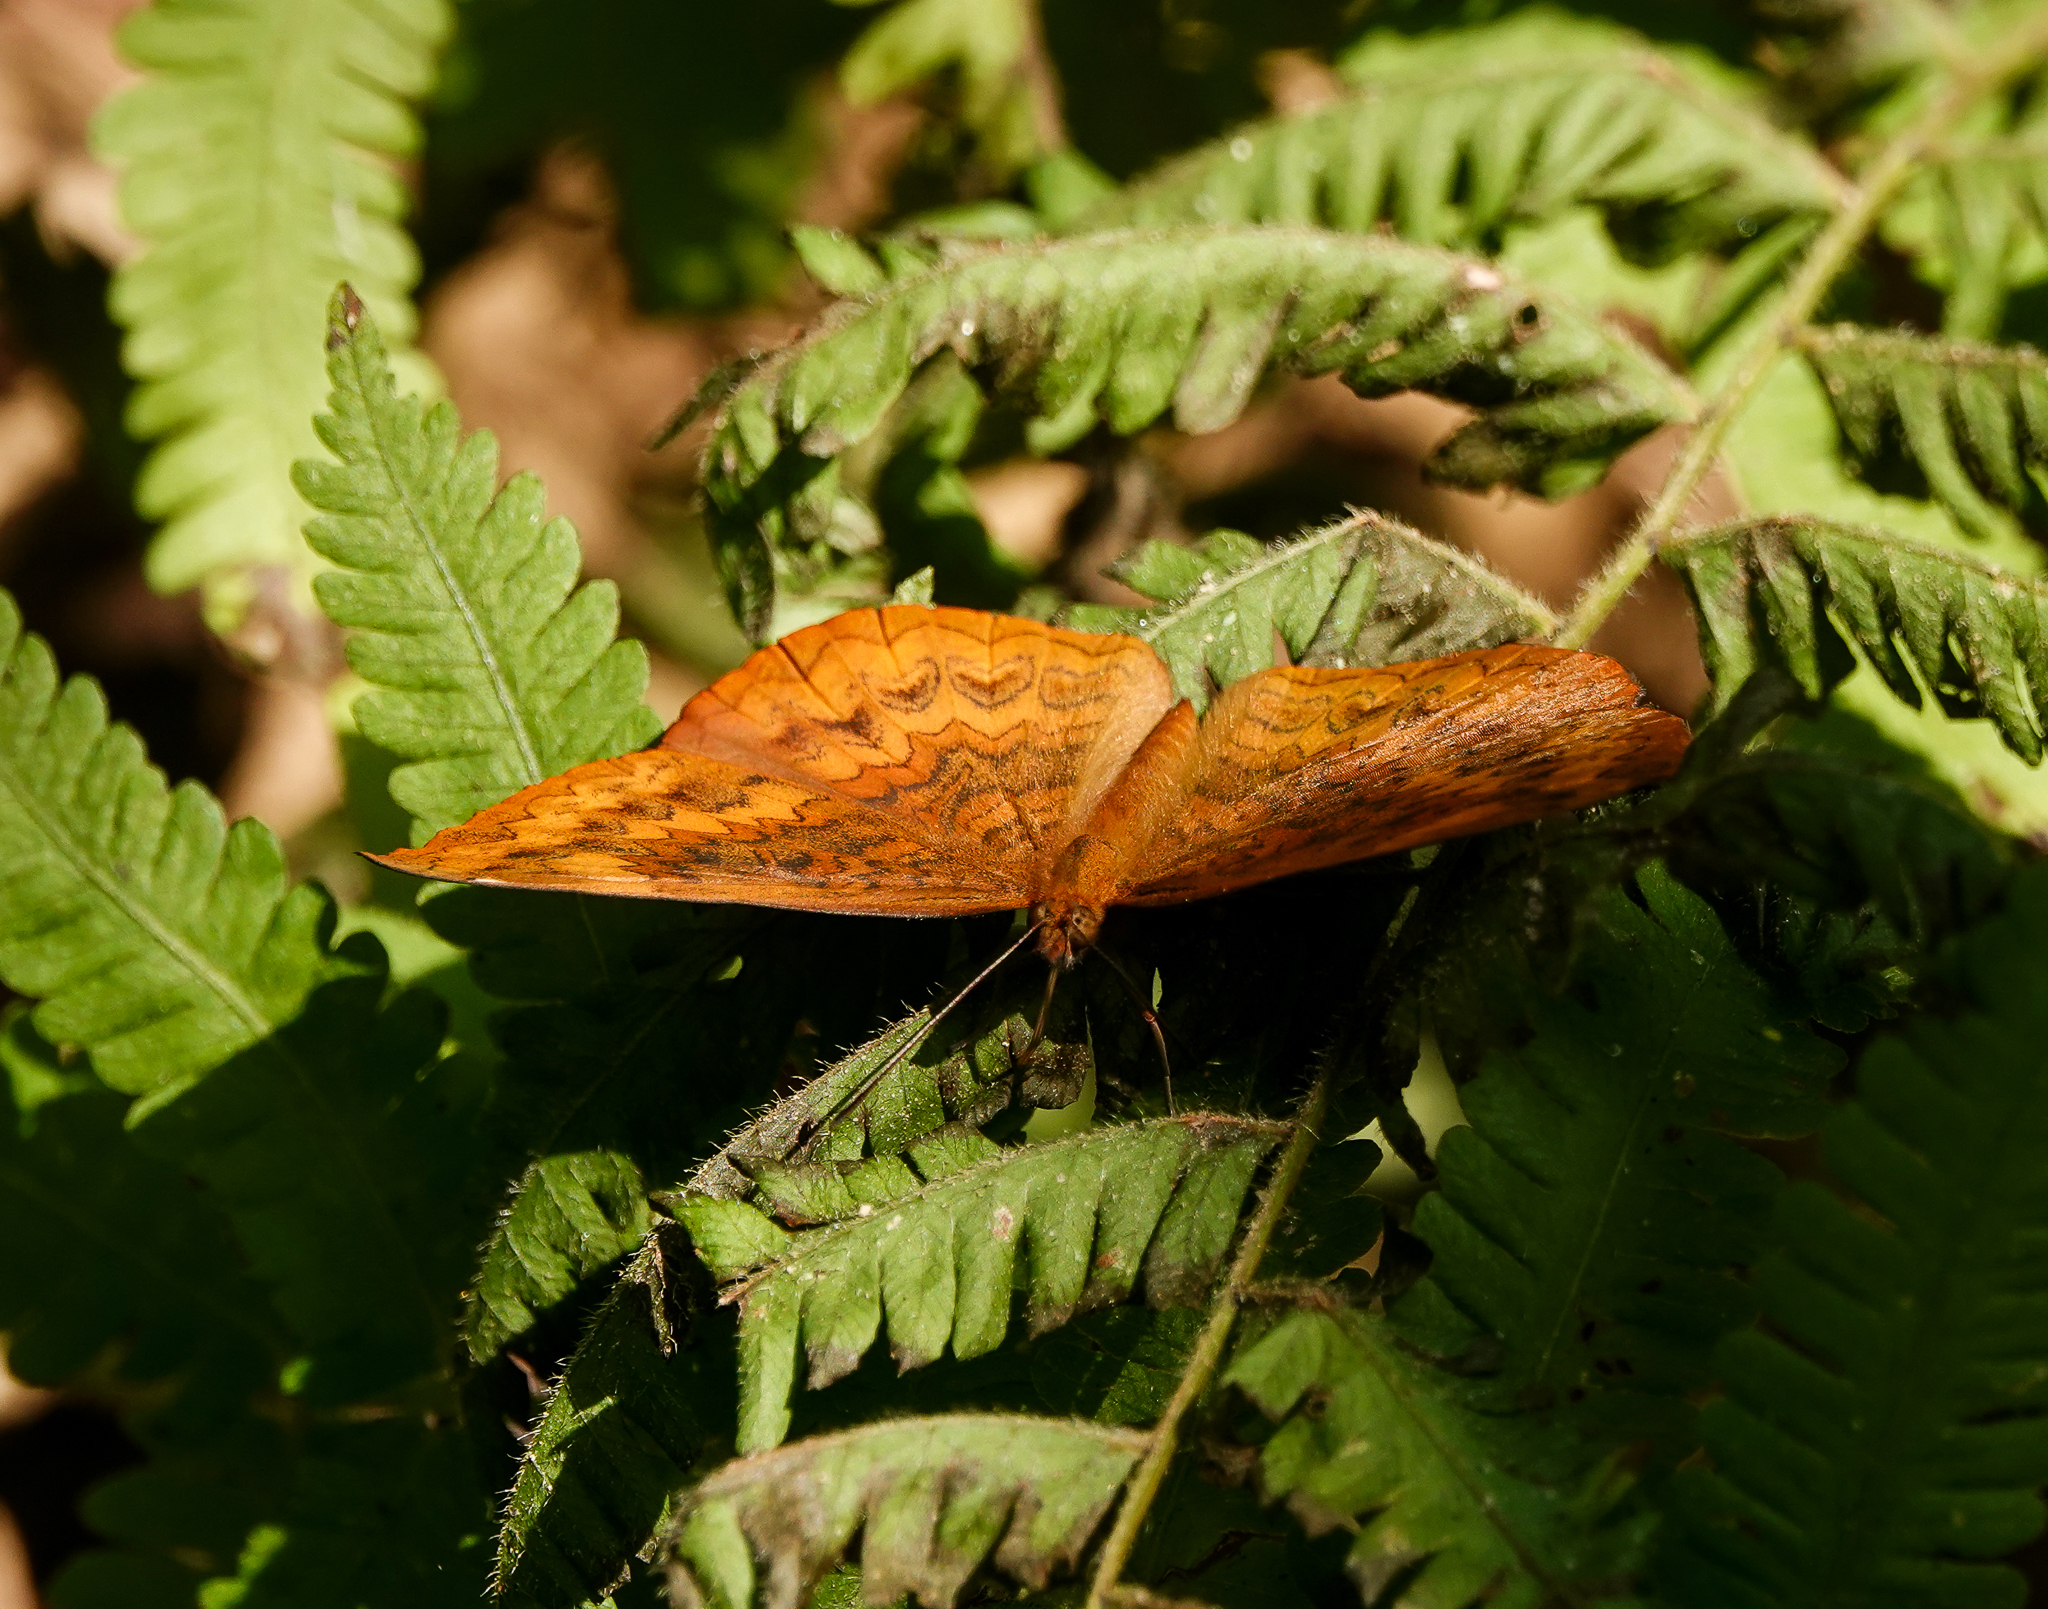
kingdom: Animalia
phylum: Arthropoda
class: Insecta
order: Lepidoptera
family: Nymphalidae
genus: Ariadne
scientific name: Ariadne merione
